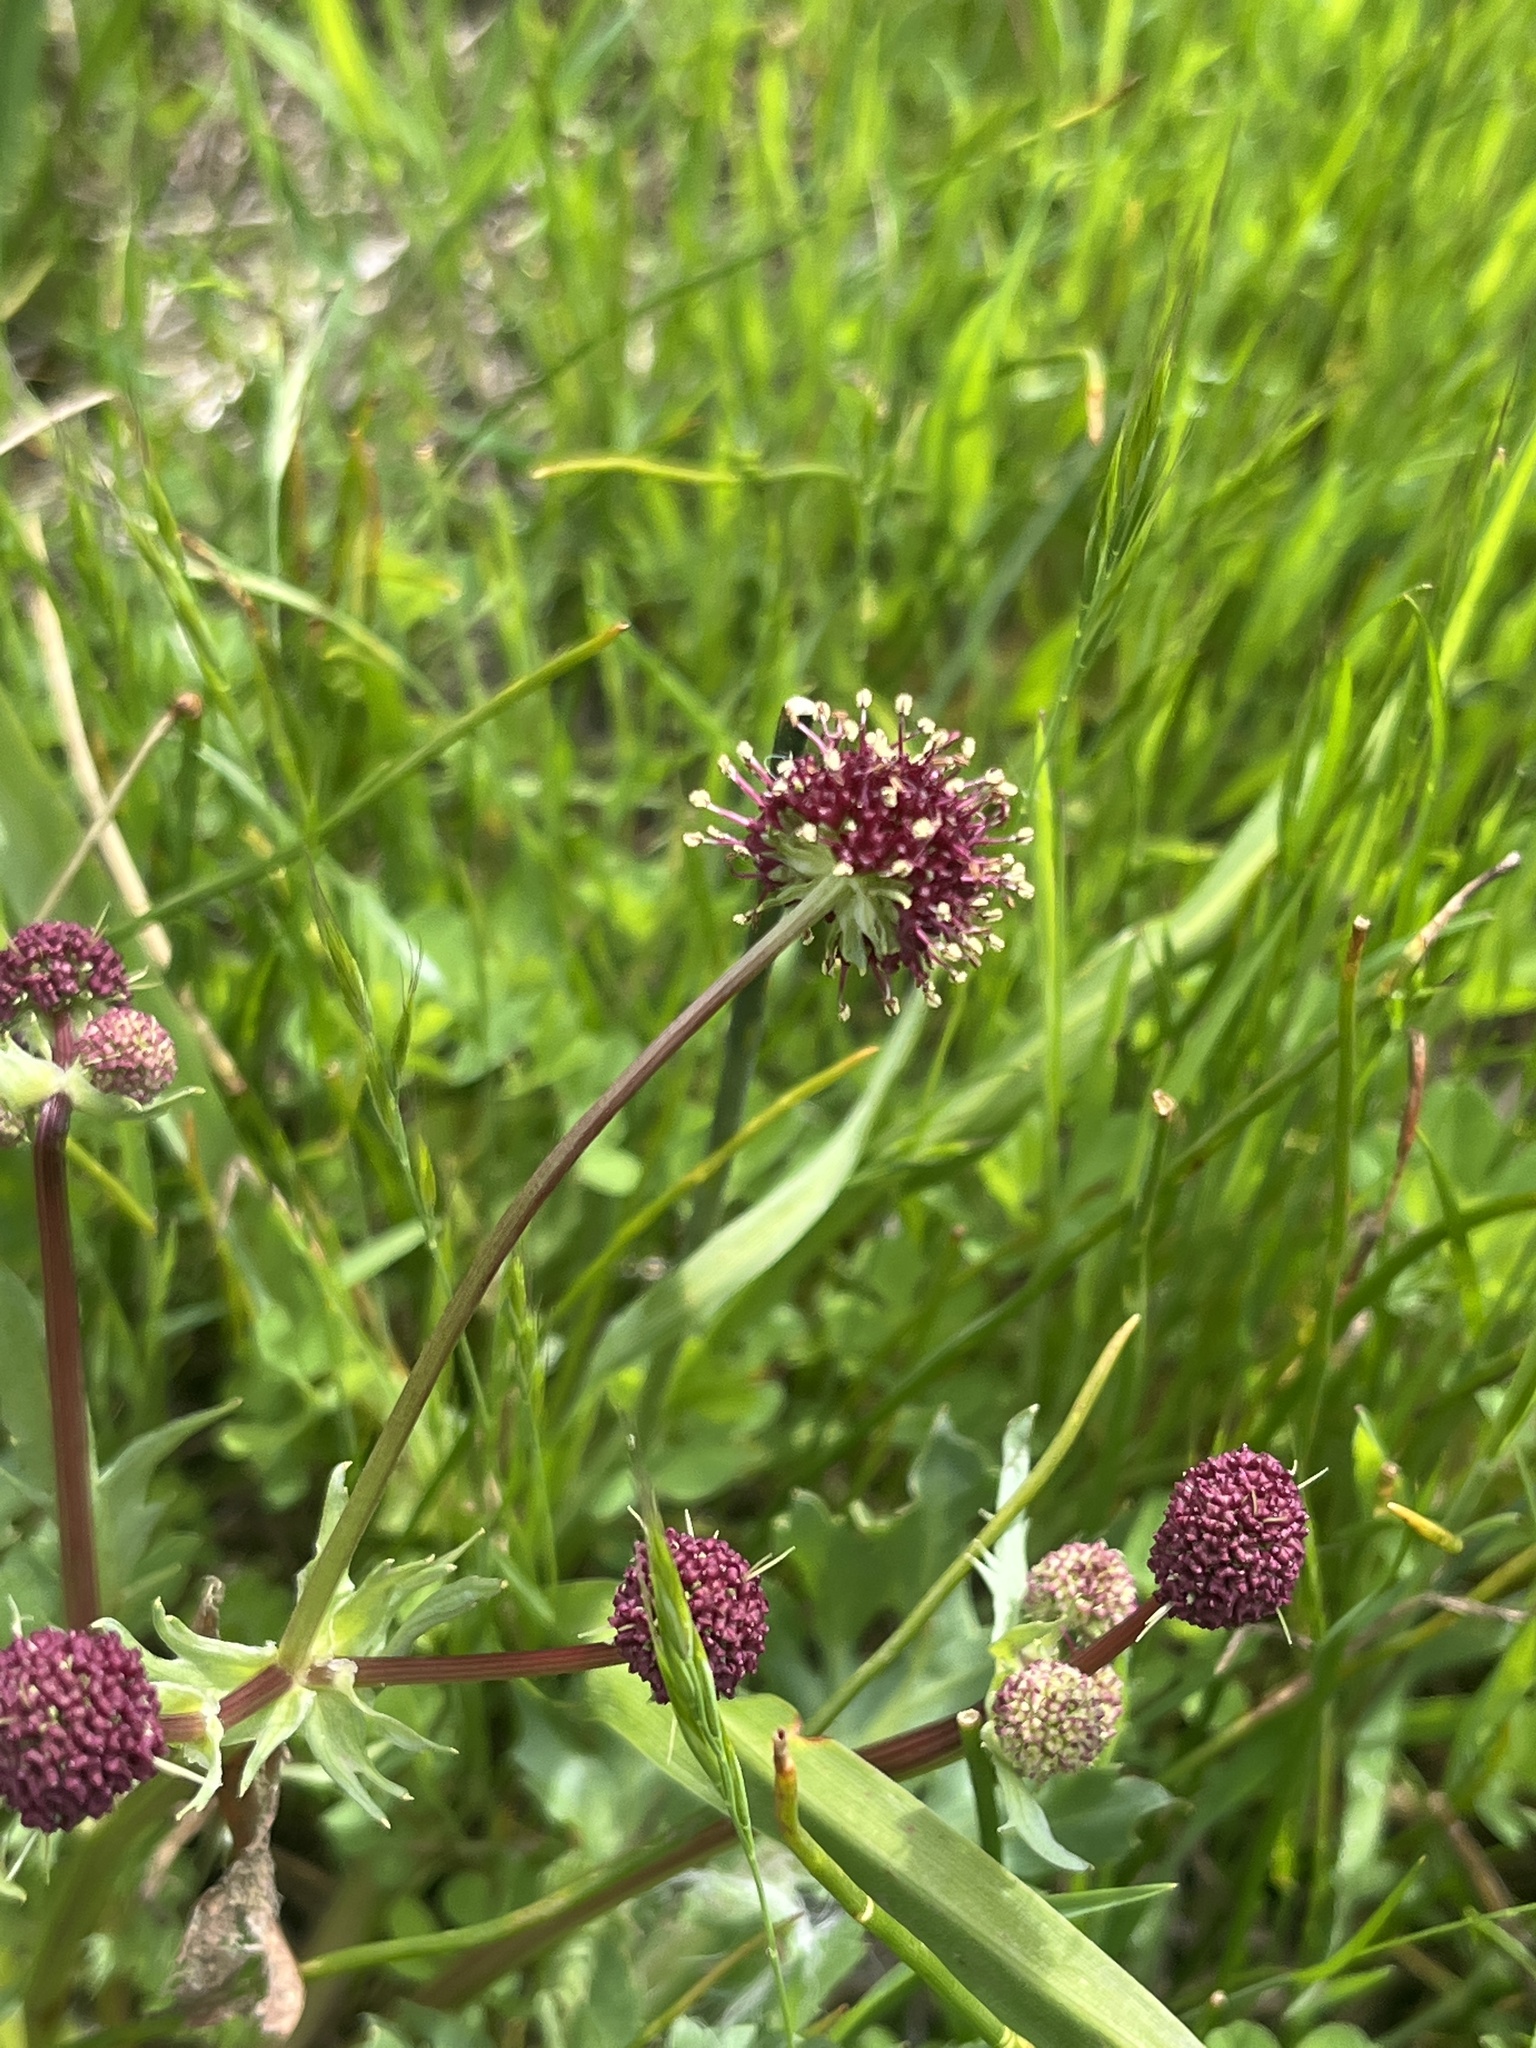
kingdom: Plantae
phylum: Tracheophyta
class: Magnoliopsida
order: Apiales
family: Apiaceae
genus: Sanicula
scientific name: Sanicula bipinnatifida
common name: Shoe-buttons
